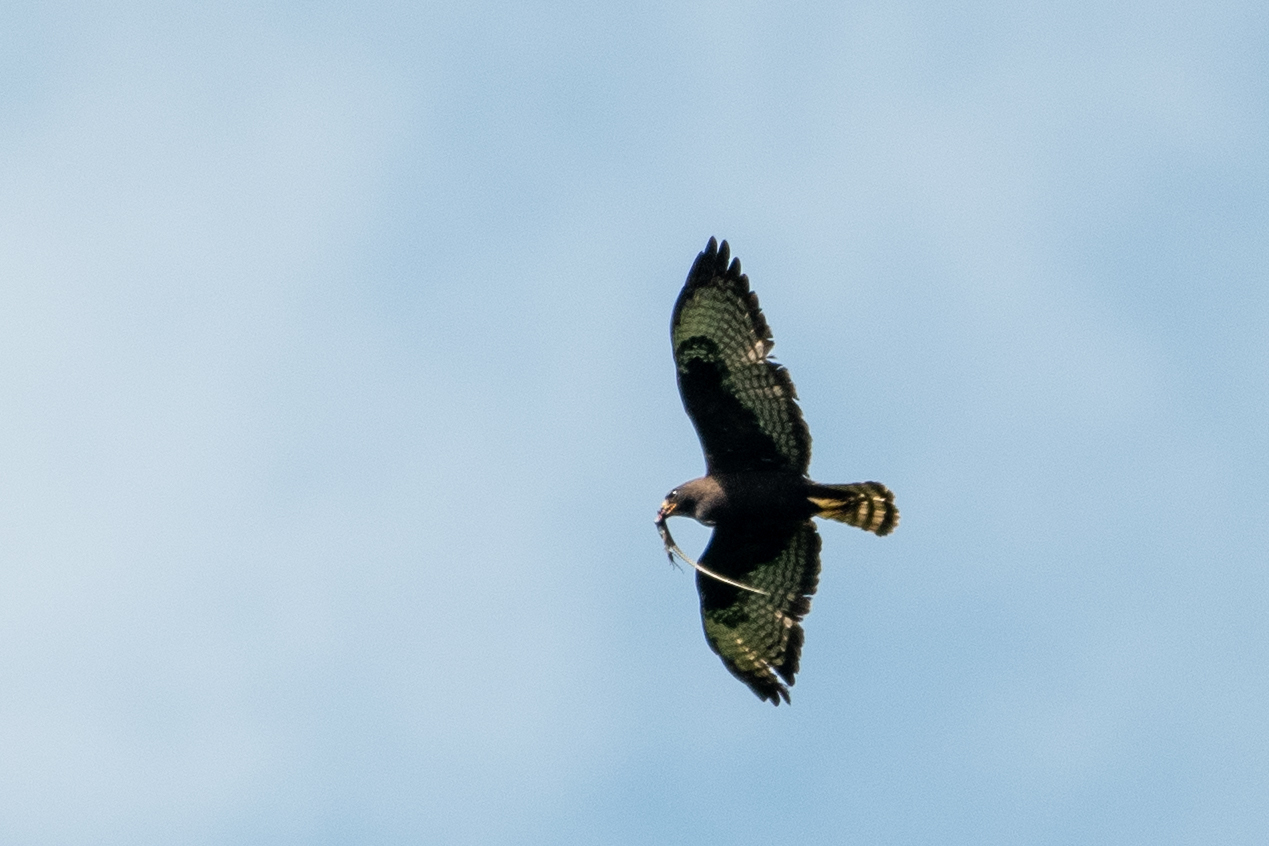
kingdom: Animalia
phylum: Chordata
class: Aves
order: Accipitriformes
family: Accipitridae
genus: Buteo
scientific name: Buteo brachyurus
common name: Short-tailed hawk
